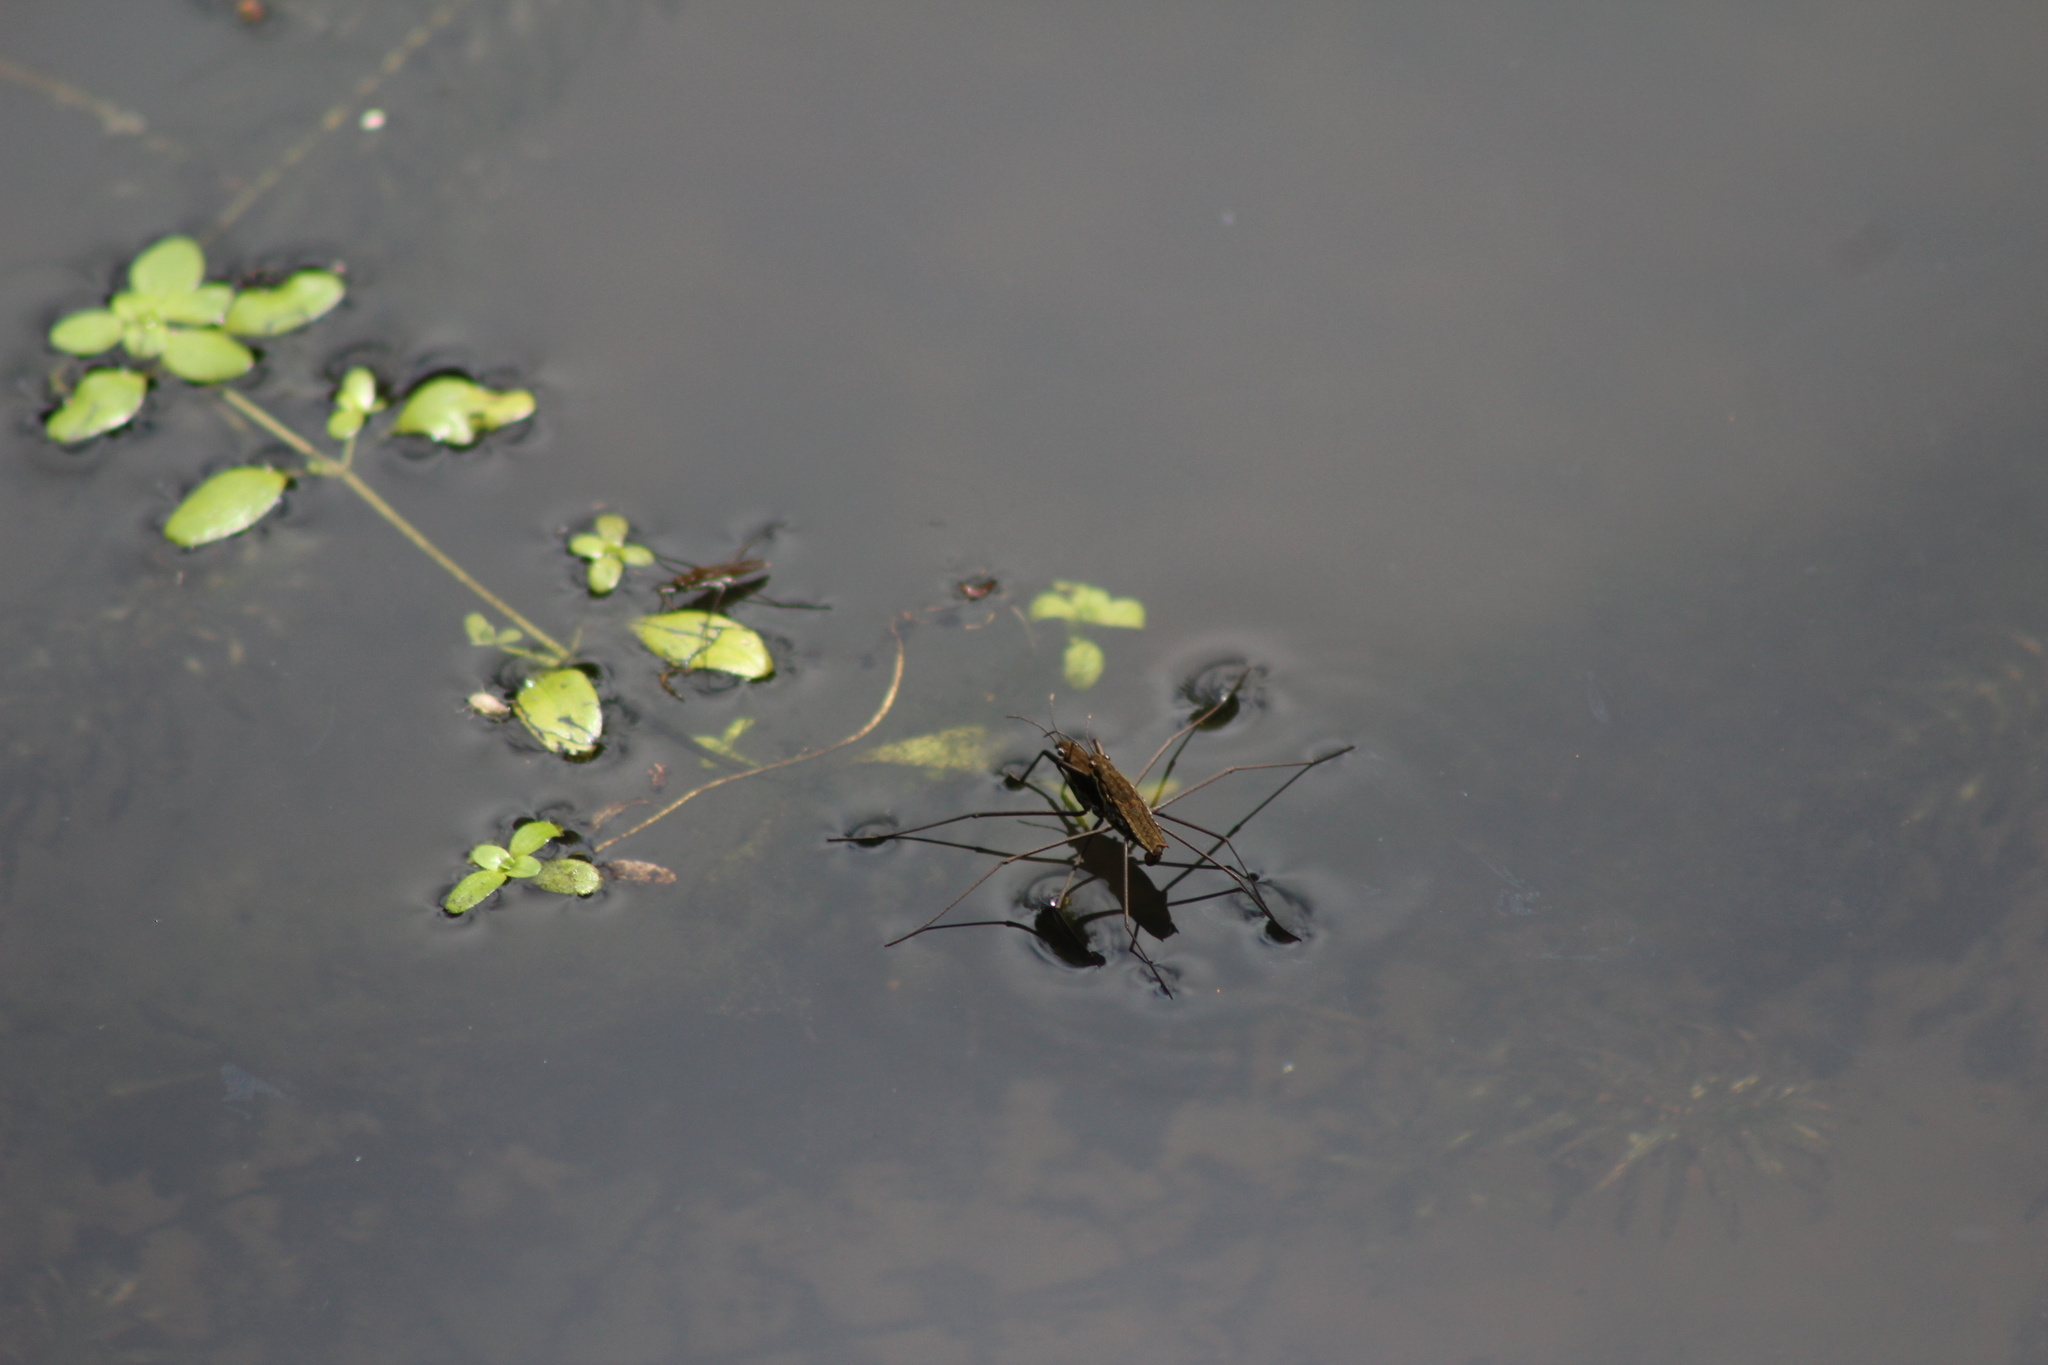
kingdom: Animalia
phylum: Arthropoda
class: Insecta
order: Hemiptera
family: Gerridae
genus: Aquarius
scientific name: Aquarius remigis
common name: Common water strider
